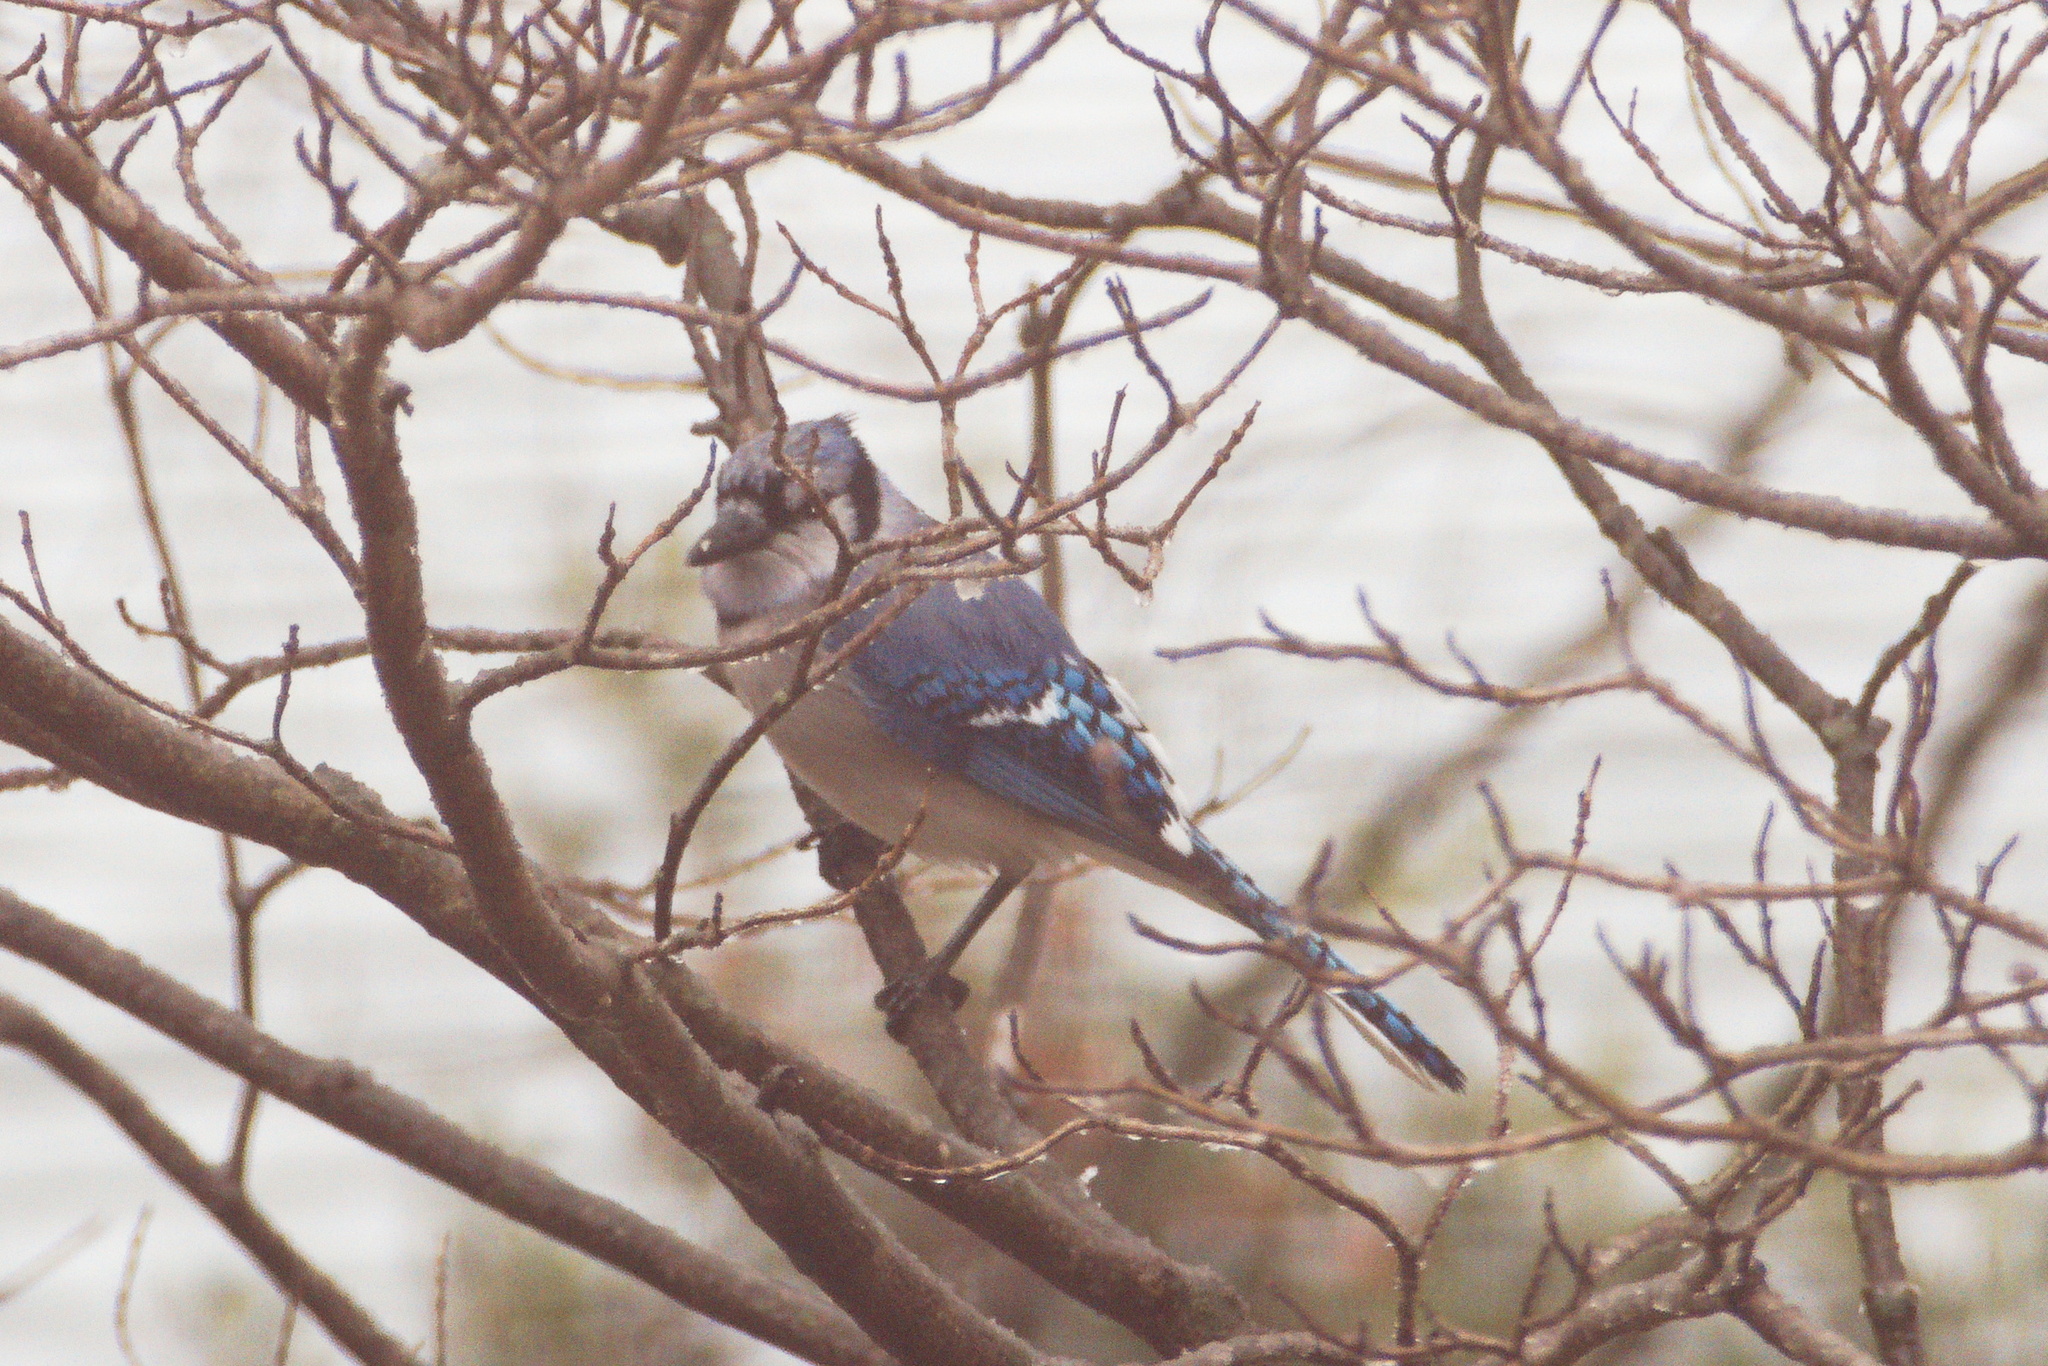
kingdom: Animalia
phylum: Chordata
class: Aves
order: Passeriformes
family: Corvidae
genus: Cyanocitta
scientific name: Cyanocitta cristata
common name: Blue jay
